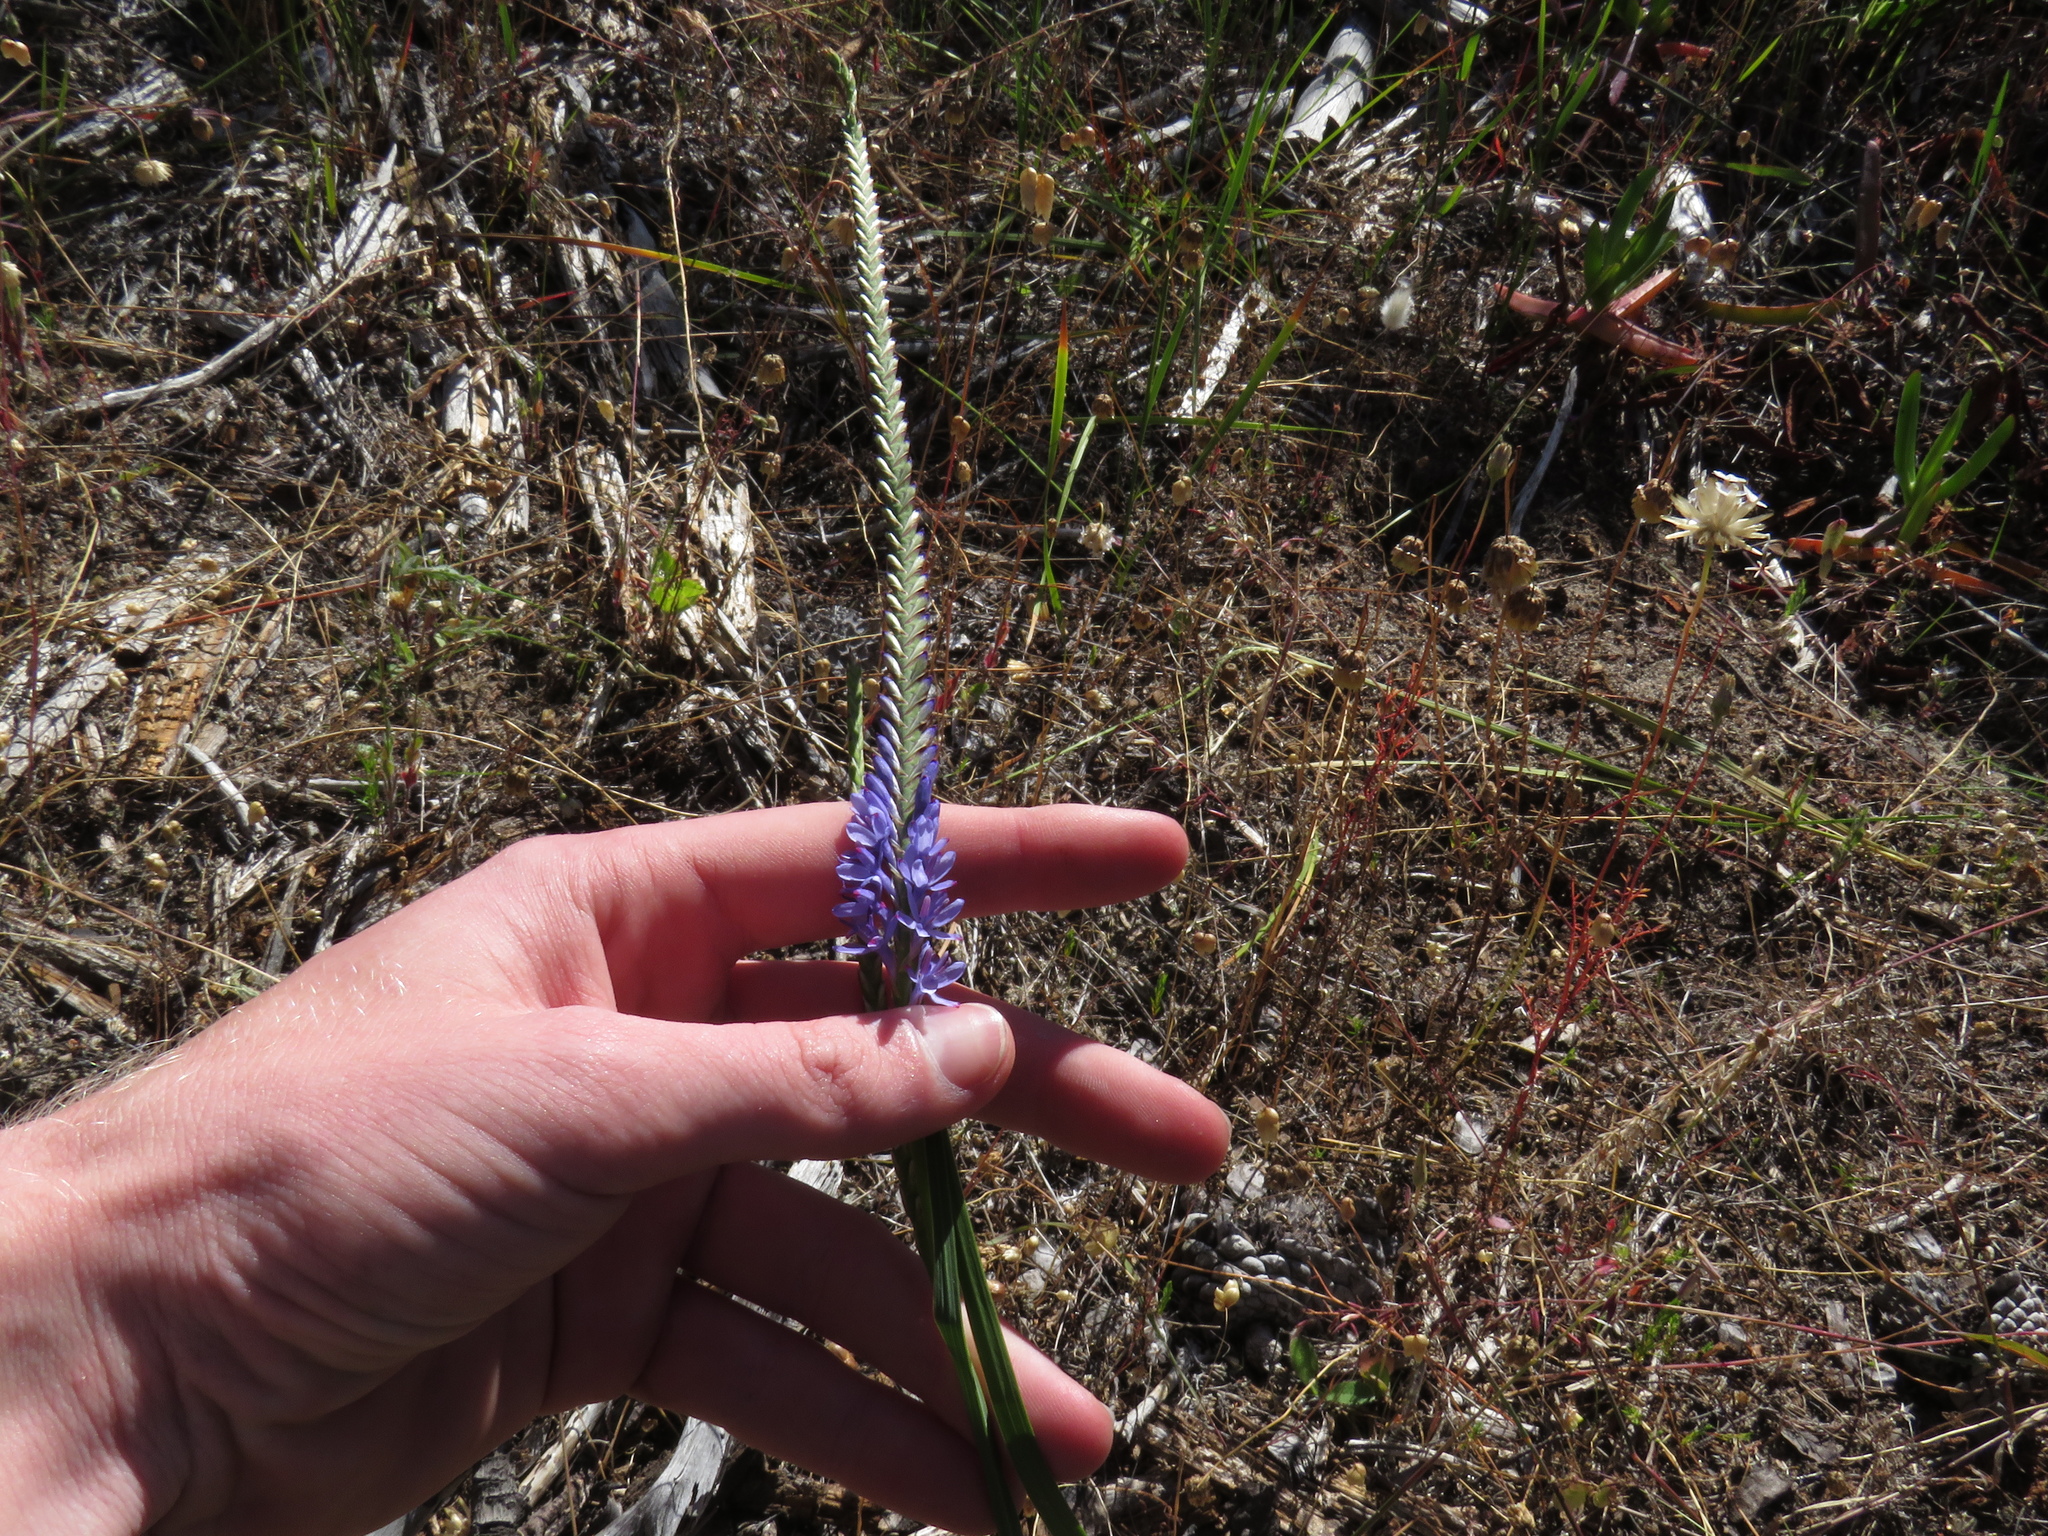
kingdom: Plantae
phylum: Tracheophyta
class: Liliopsida
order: Asparagales
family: Iridaceae
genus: Micranthus
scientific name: Micranthus alopecuroides
